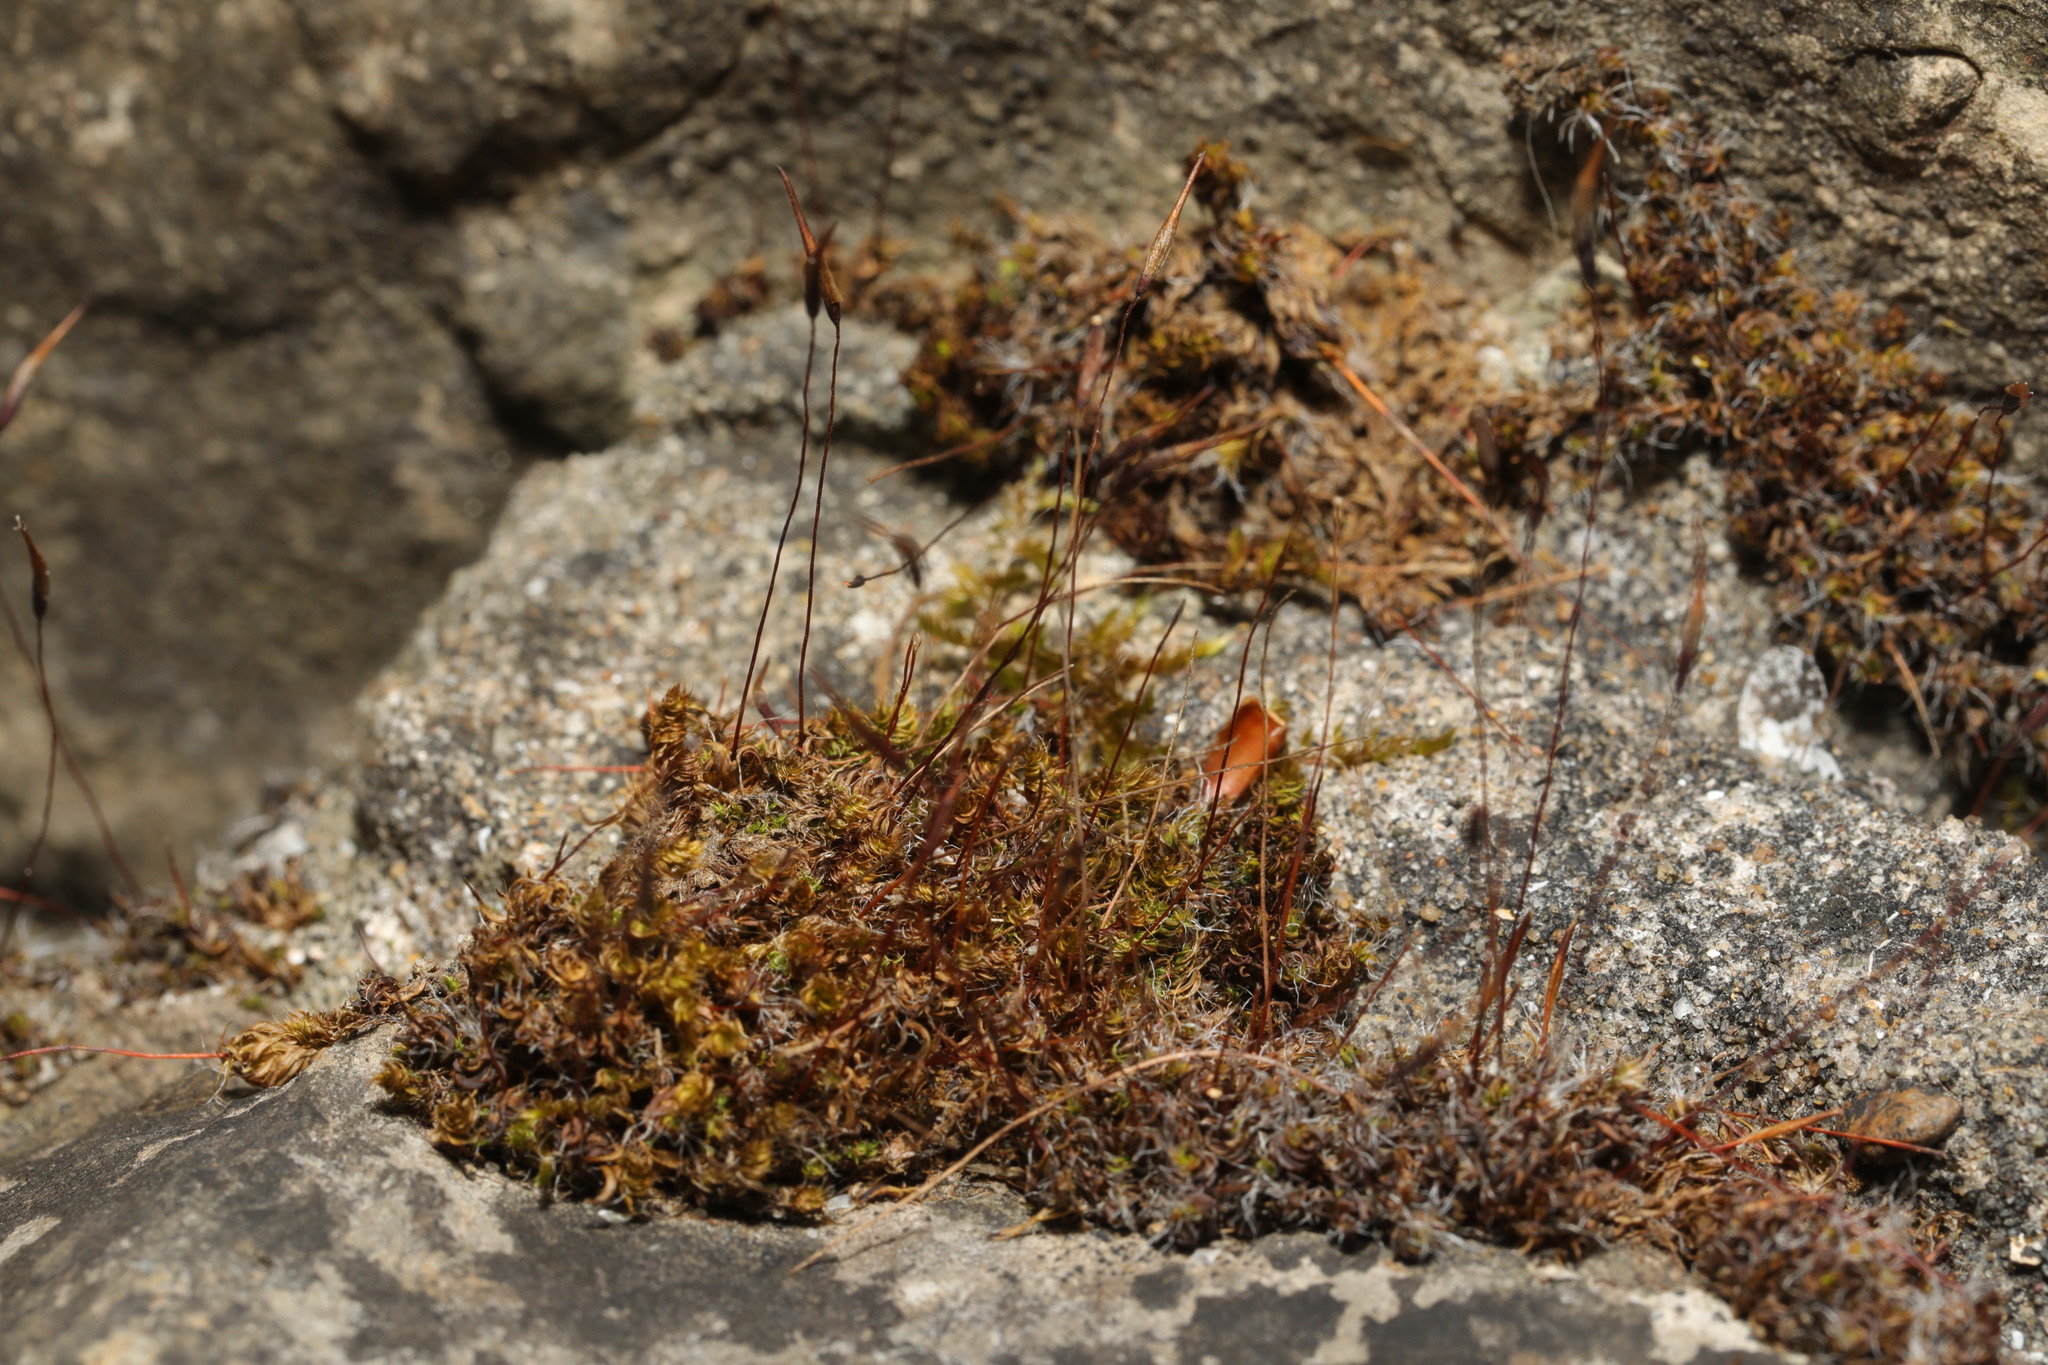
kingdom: Plantae
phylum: Bryophyta
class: Bryopsida
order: Pottiales
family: Pottiaceae
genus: Tortula
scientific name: Tortula muralis
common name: Wall screw-moss
